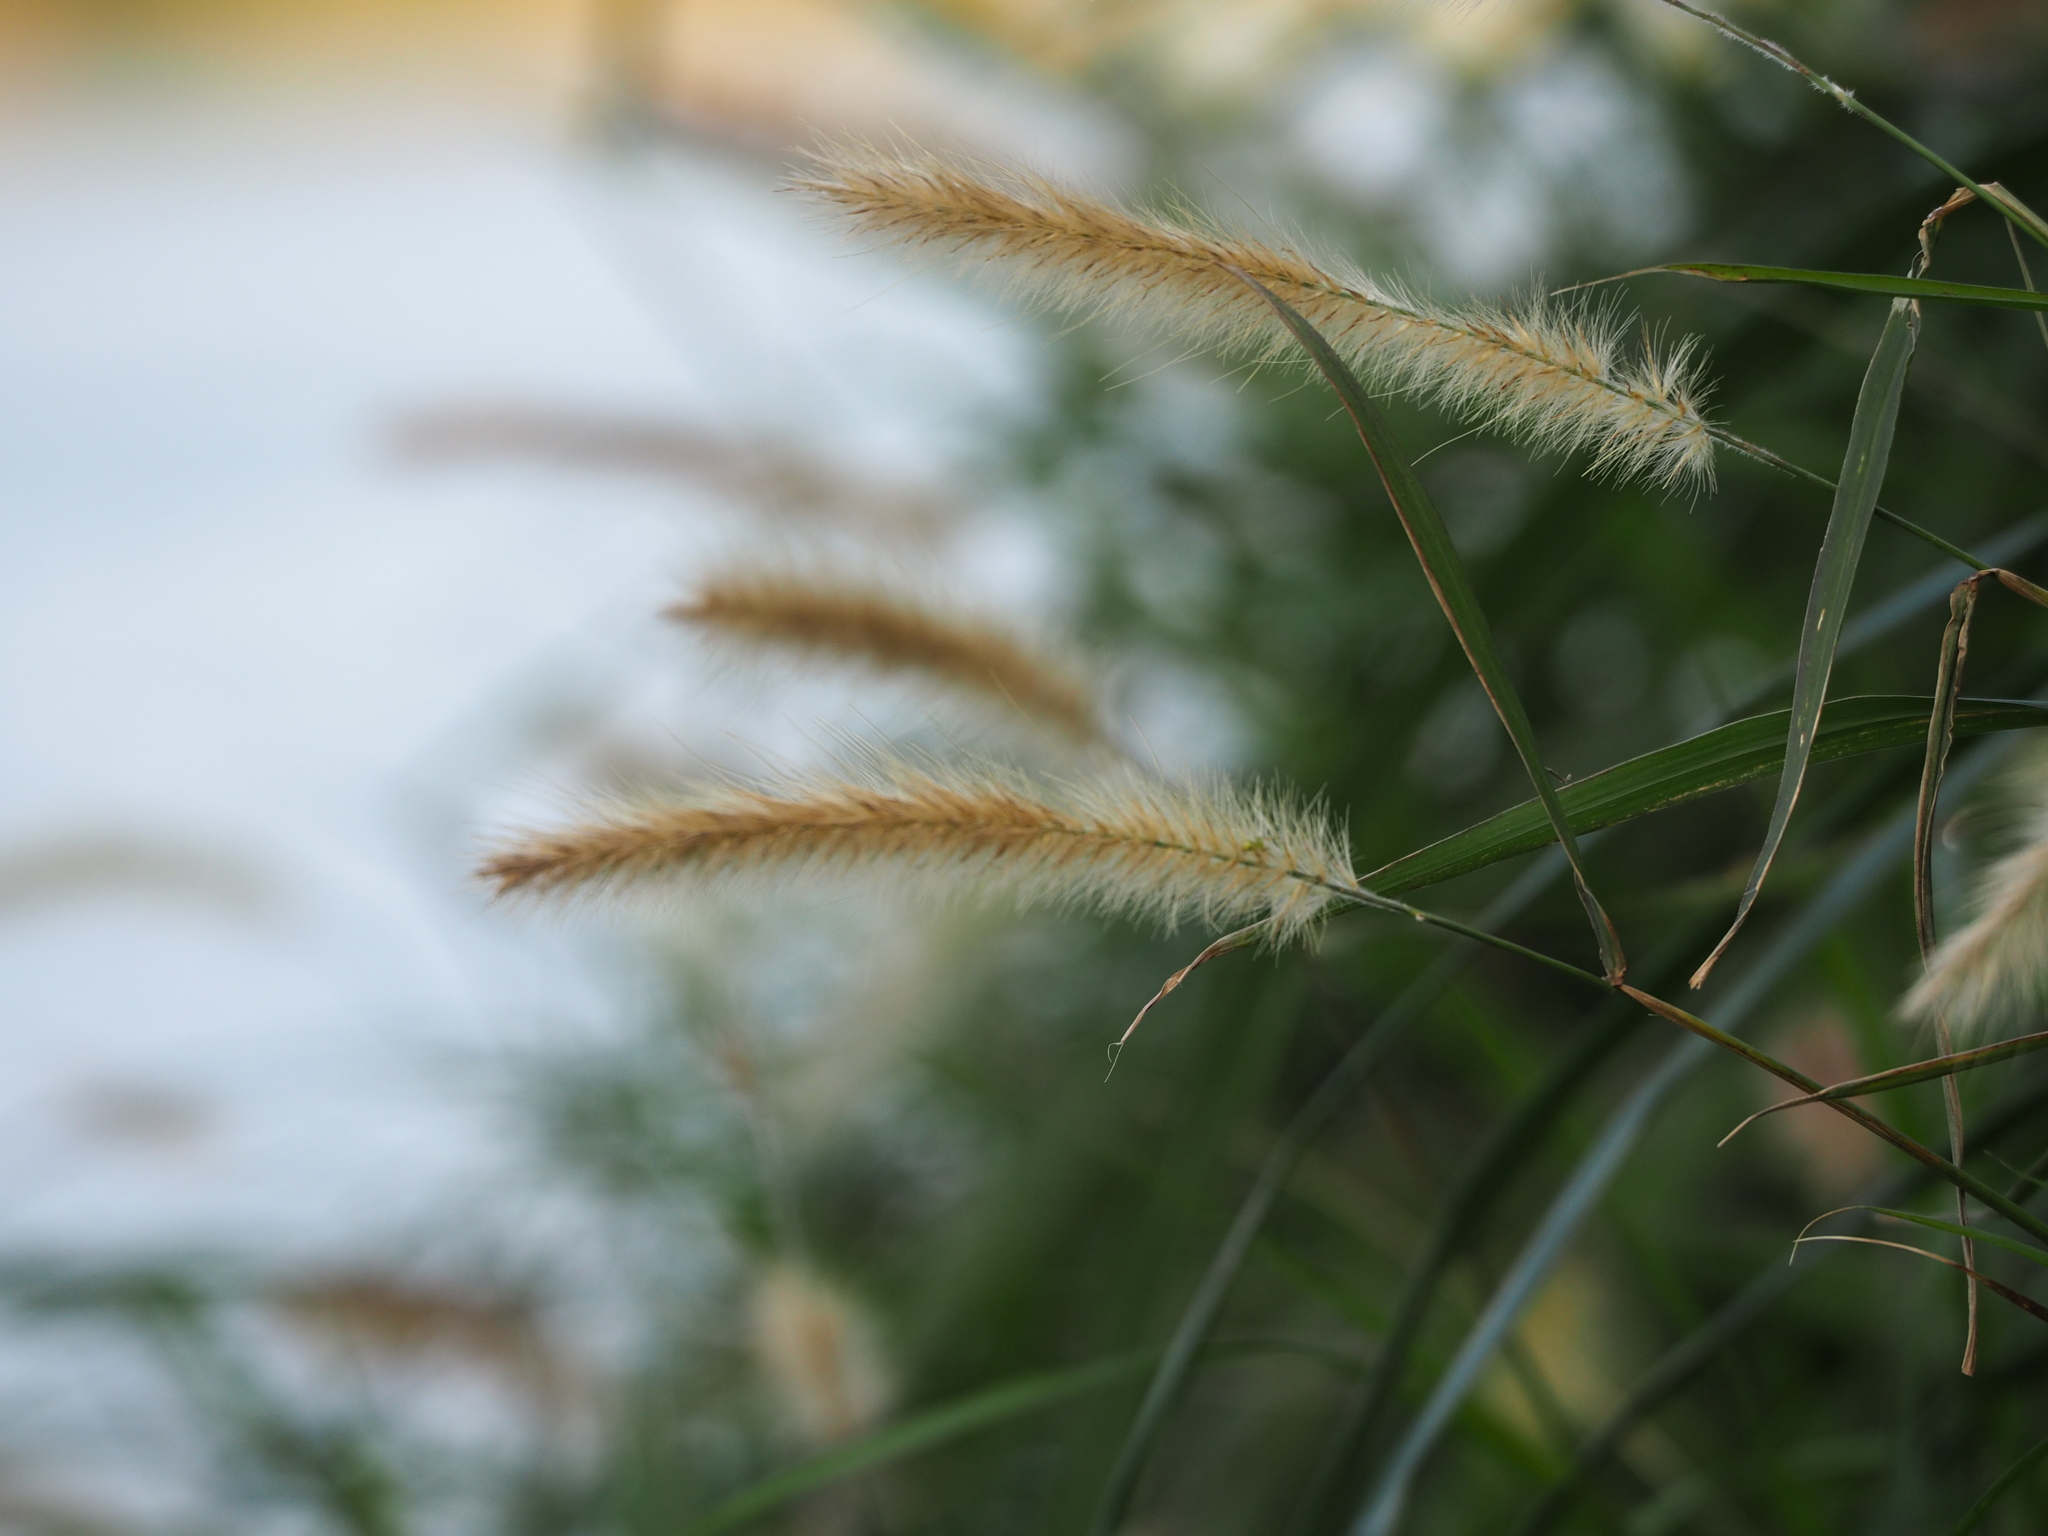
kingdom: Plantae
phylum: Tracheophyta
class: Liliopsida
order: Poales
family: Poaceae
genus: Cenchrus
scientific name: Cenchrus purpureus
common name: Elephant grass
